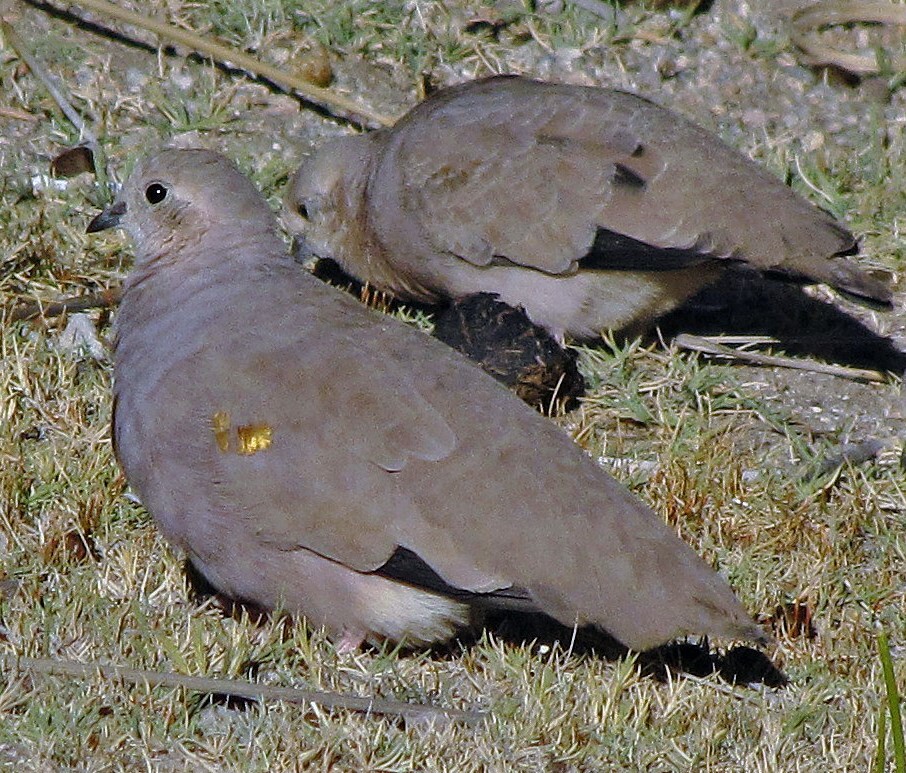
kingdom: Animalia
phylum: Chordata
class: Aves
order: Columbiformes
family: Columbidae
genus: Metriopelia
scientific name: Metriopelia aymara
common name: Golden-spotted ground dove
